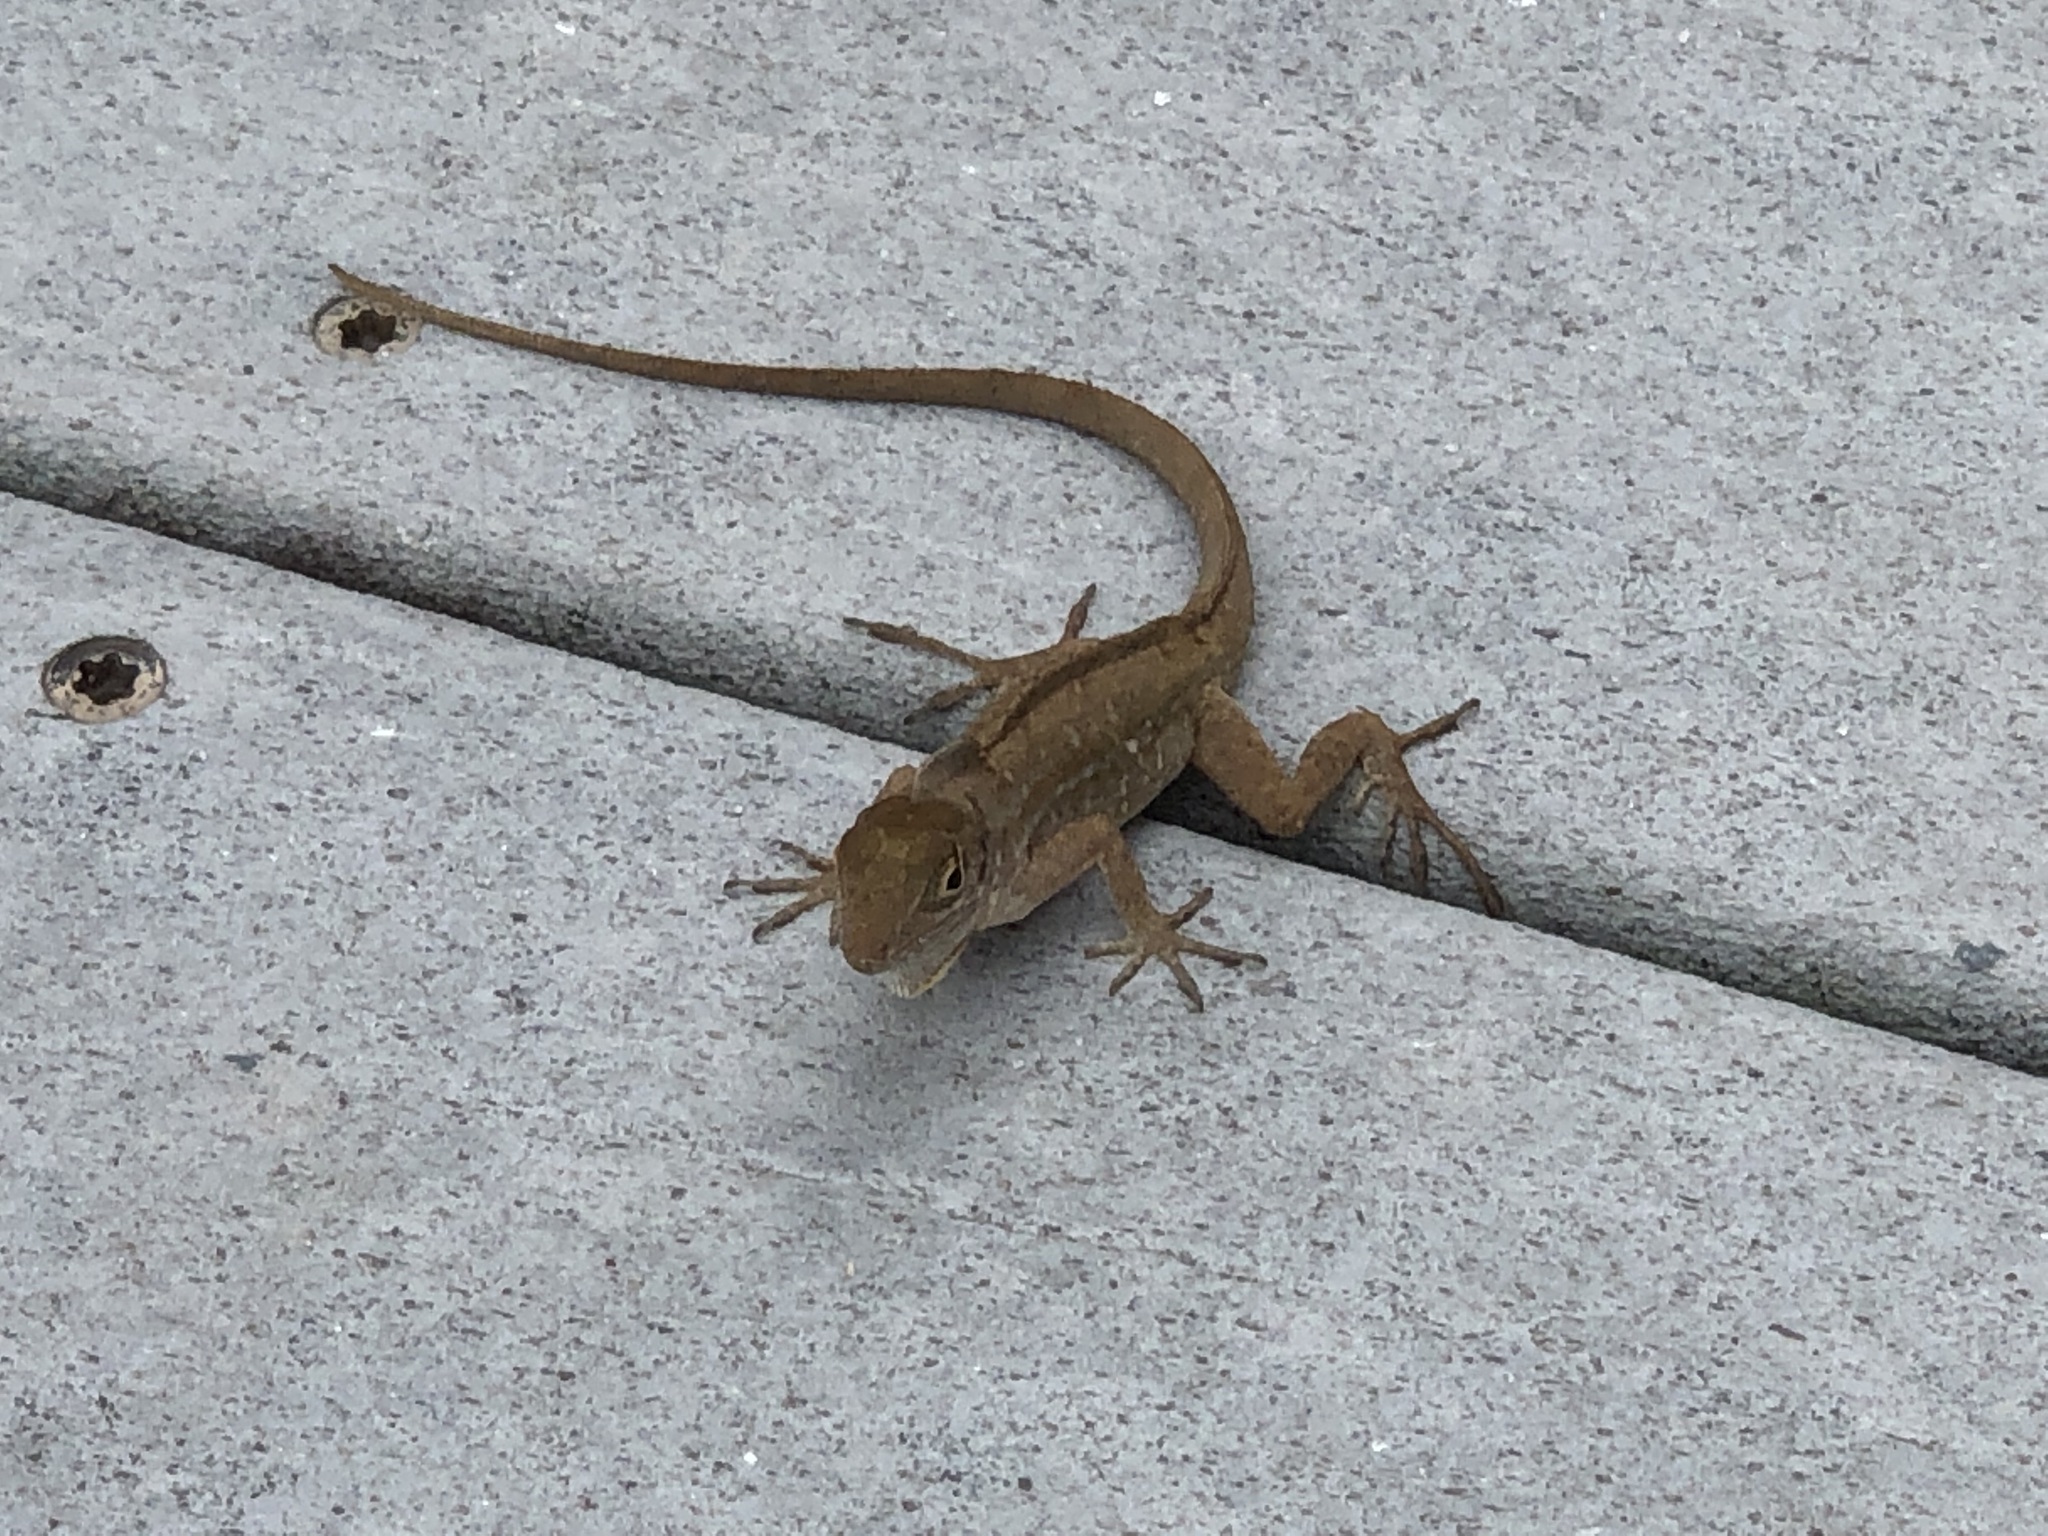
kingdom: Animalia
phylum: Chordata
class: Squamata
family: Dactyloidae
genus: Anolis
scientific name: Anolis sagrei
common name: Brown anole
